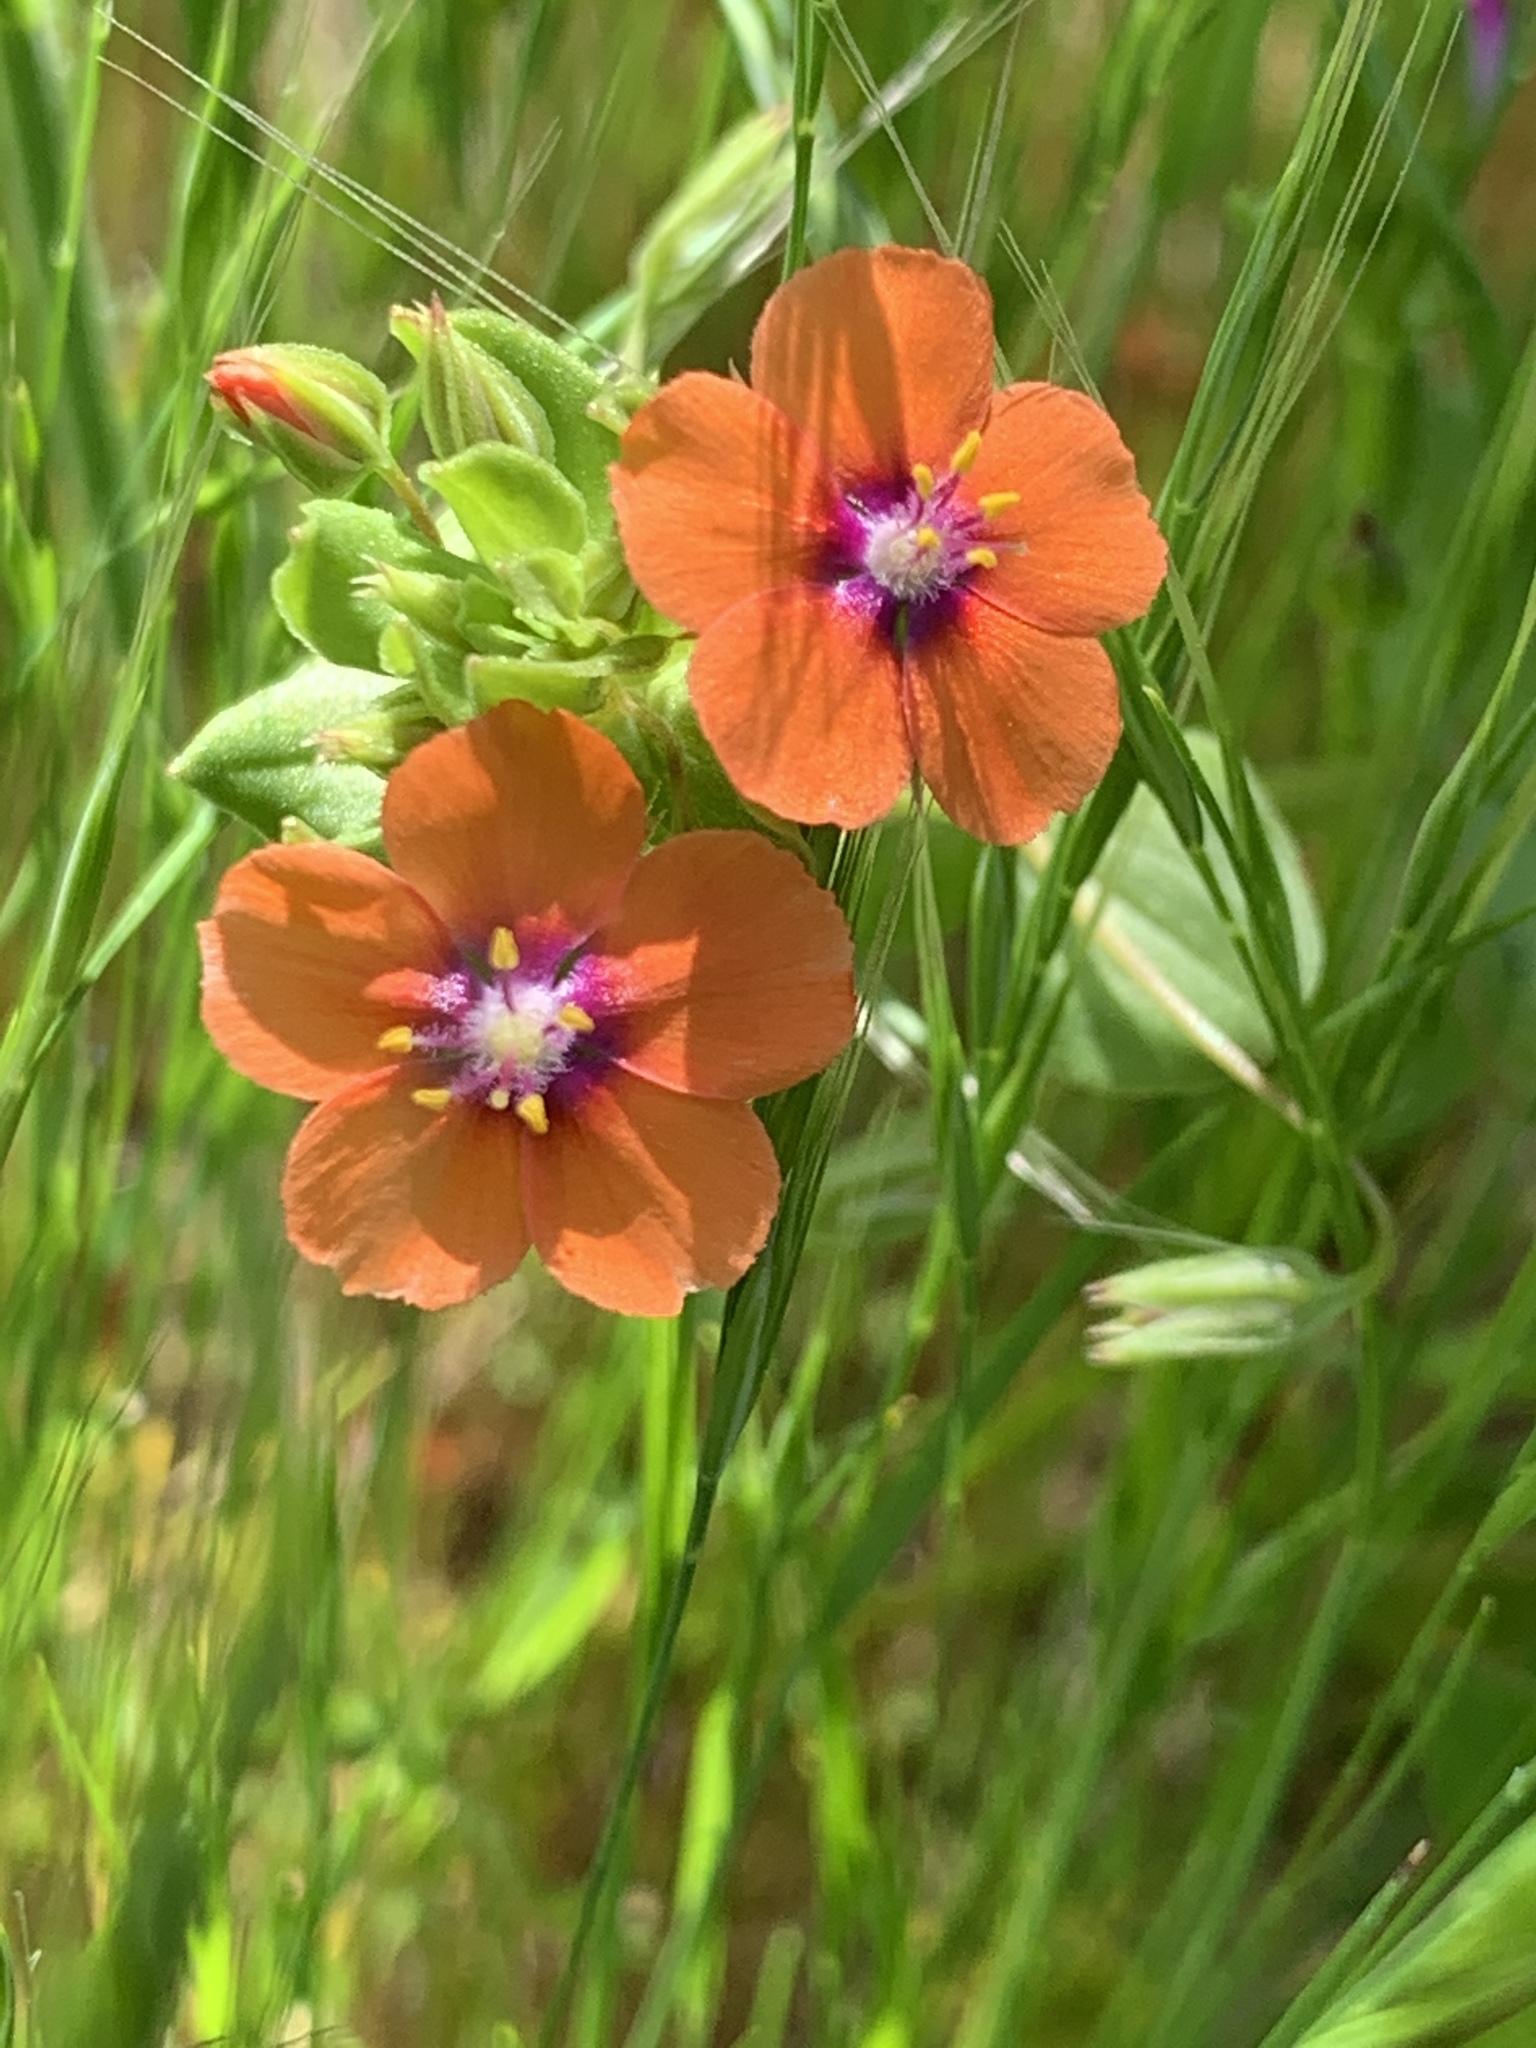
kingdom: Plantae
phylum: Tracheophyta
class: Magnoliopsida
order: Ericales
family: Primulaceae
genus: Lysimachia
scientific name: Lysimachia arvensis
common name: Scarlet pimpernel
